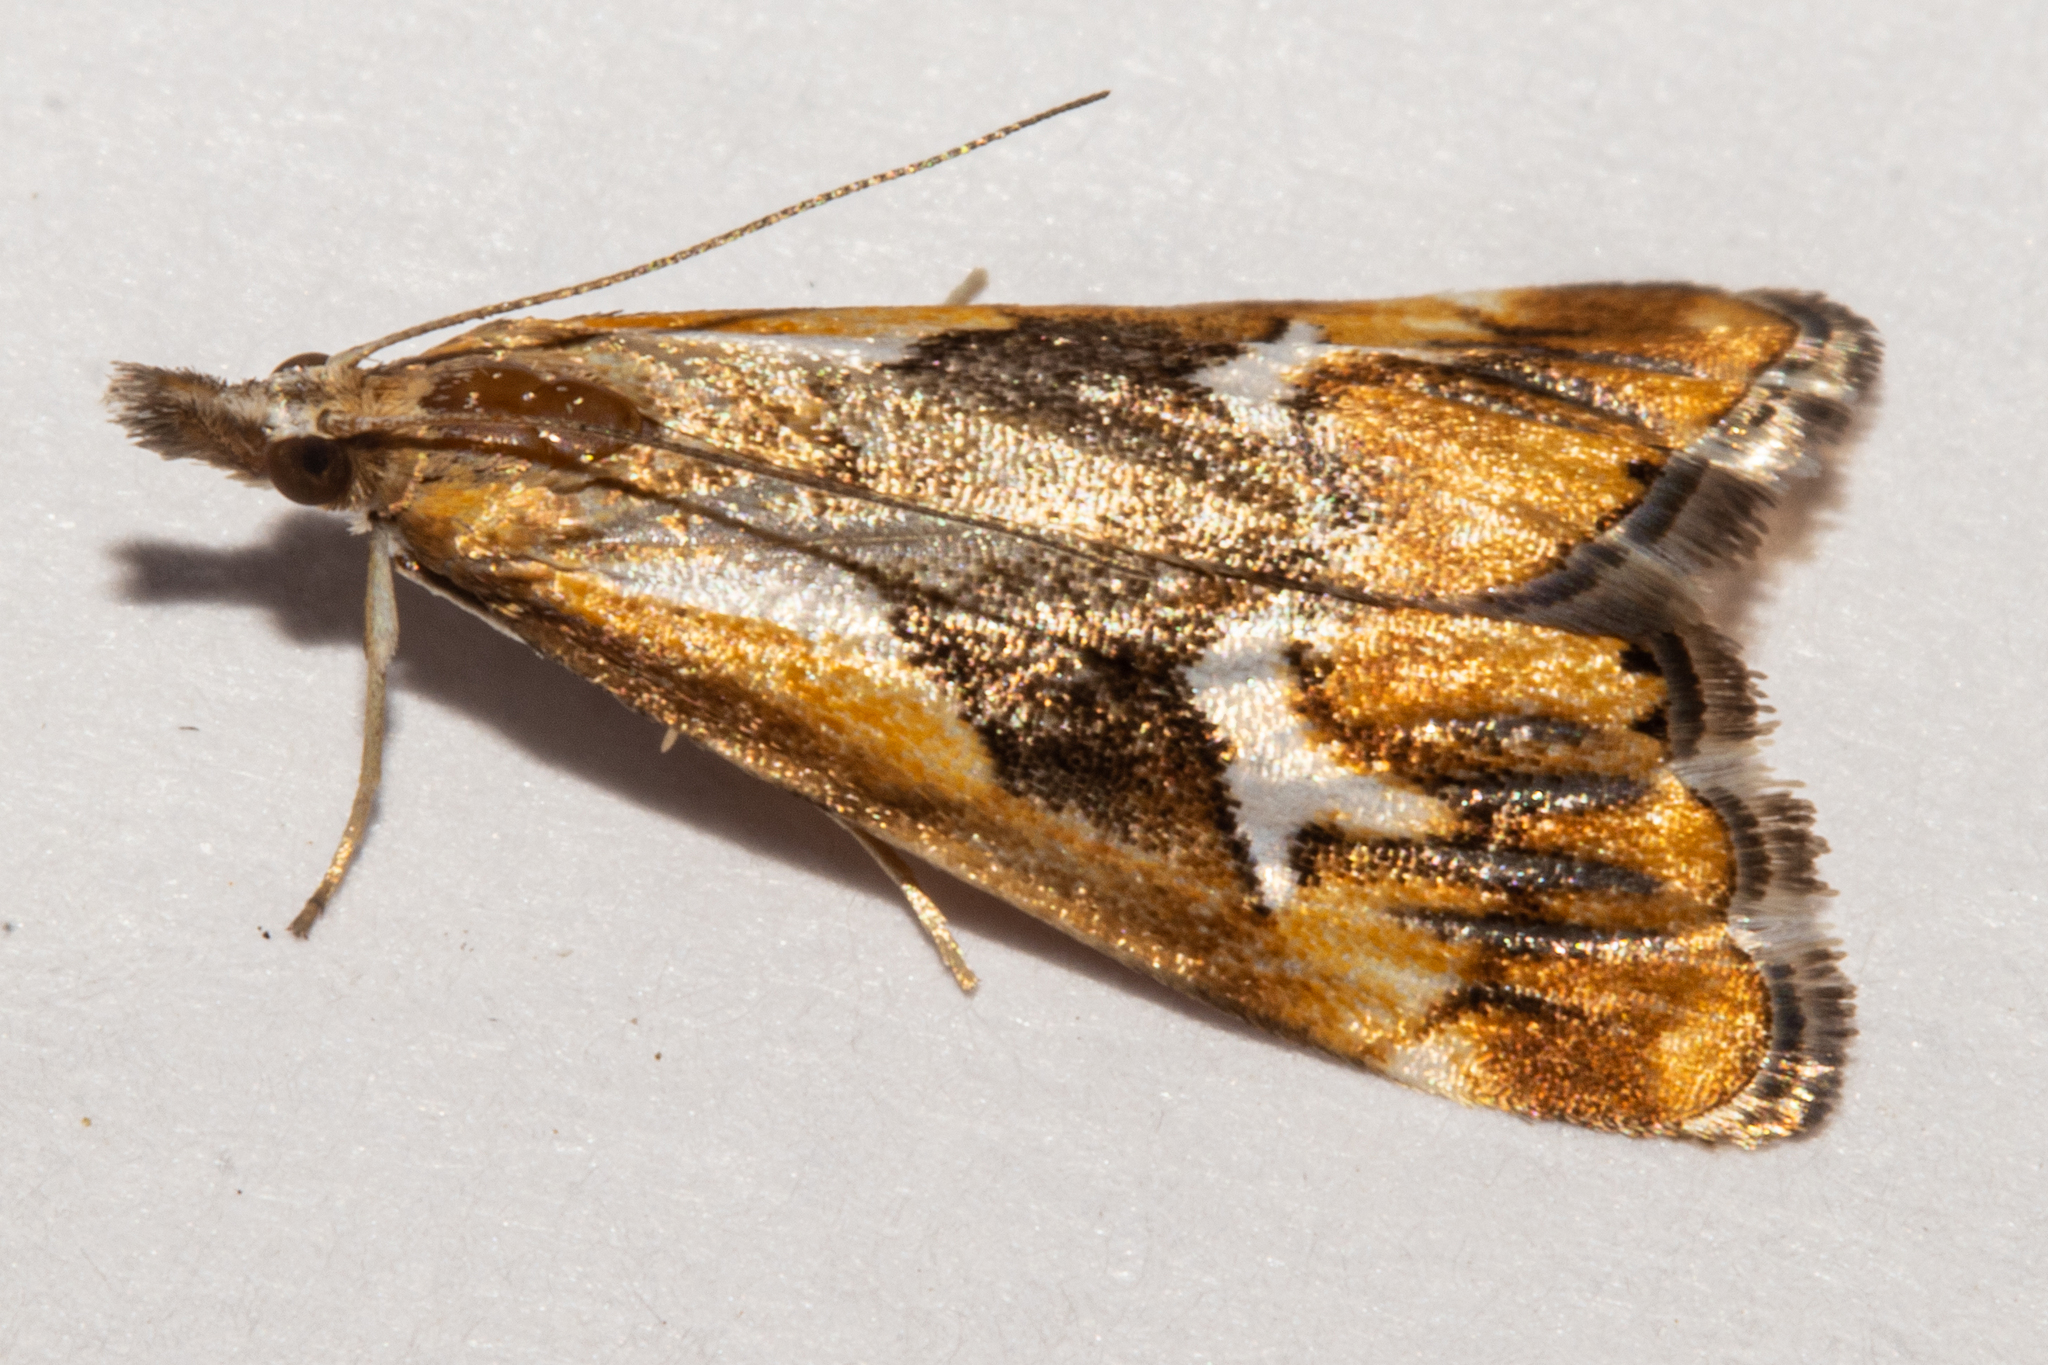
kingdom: Animalia
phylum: Arthropoda
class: Insecta
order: Lepidoptera
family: Crambidae
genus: Glaucocharis
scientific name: Glaucocharis interruptus
